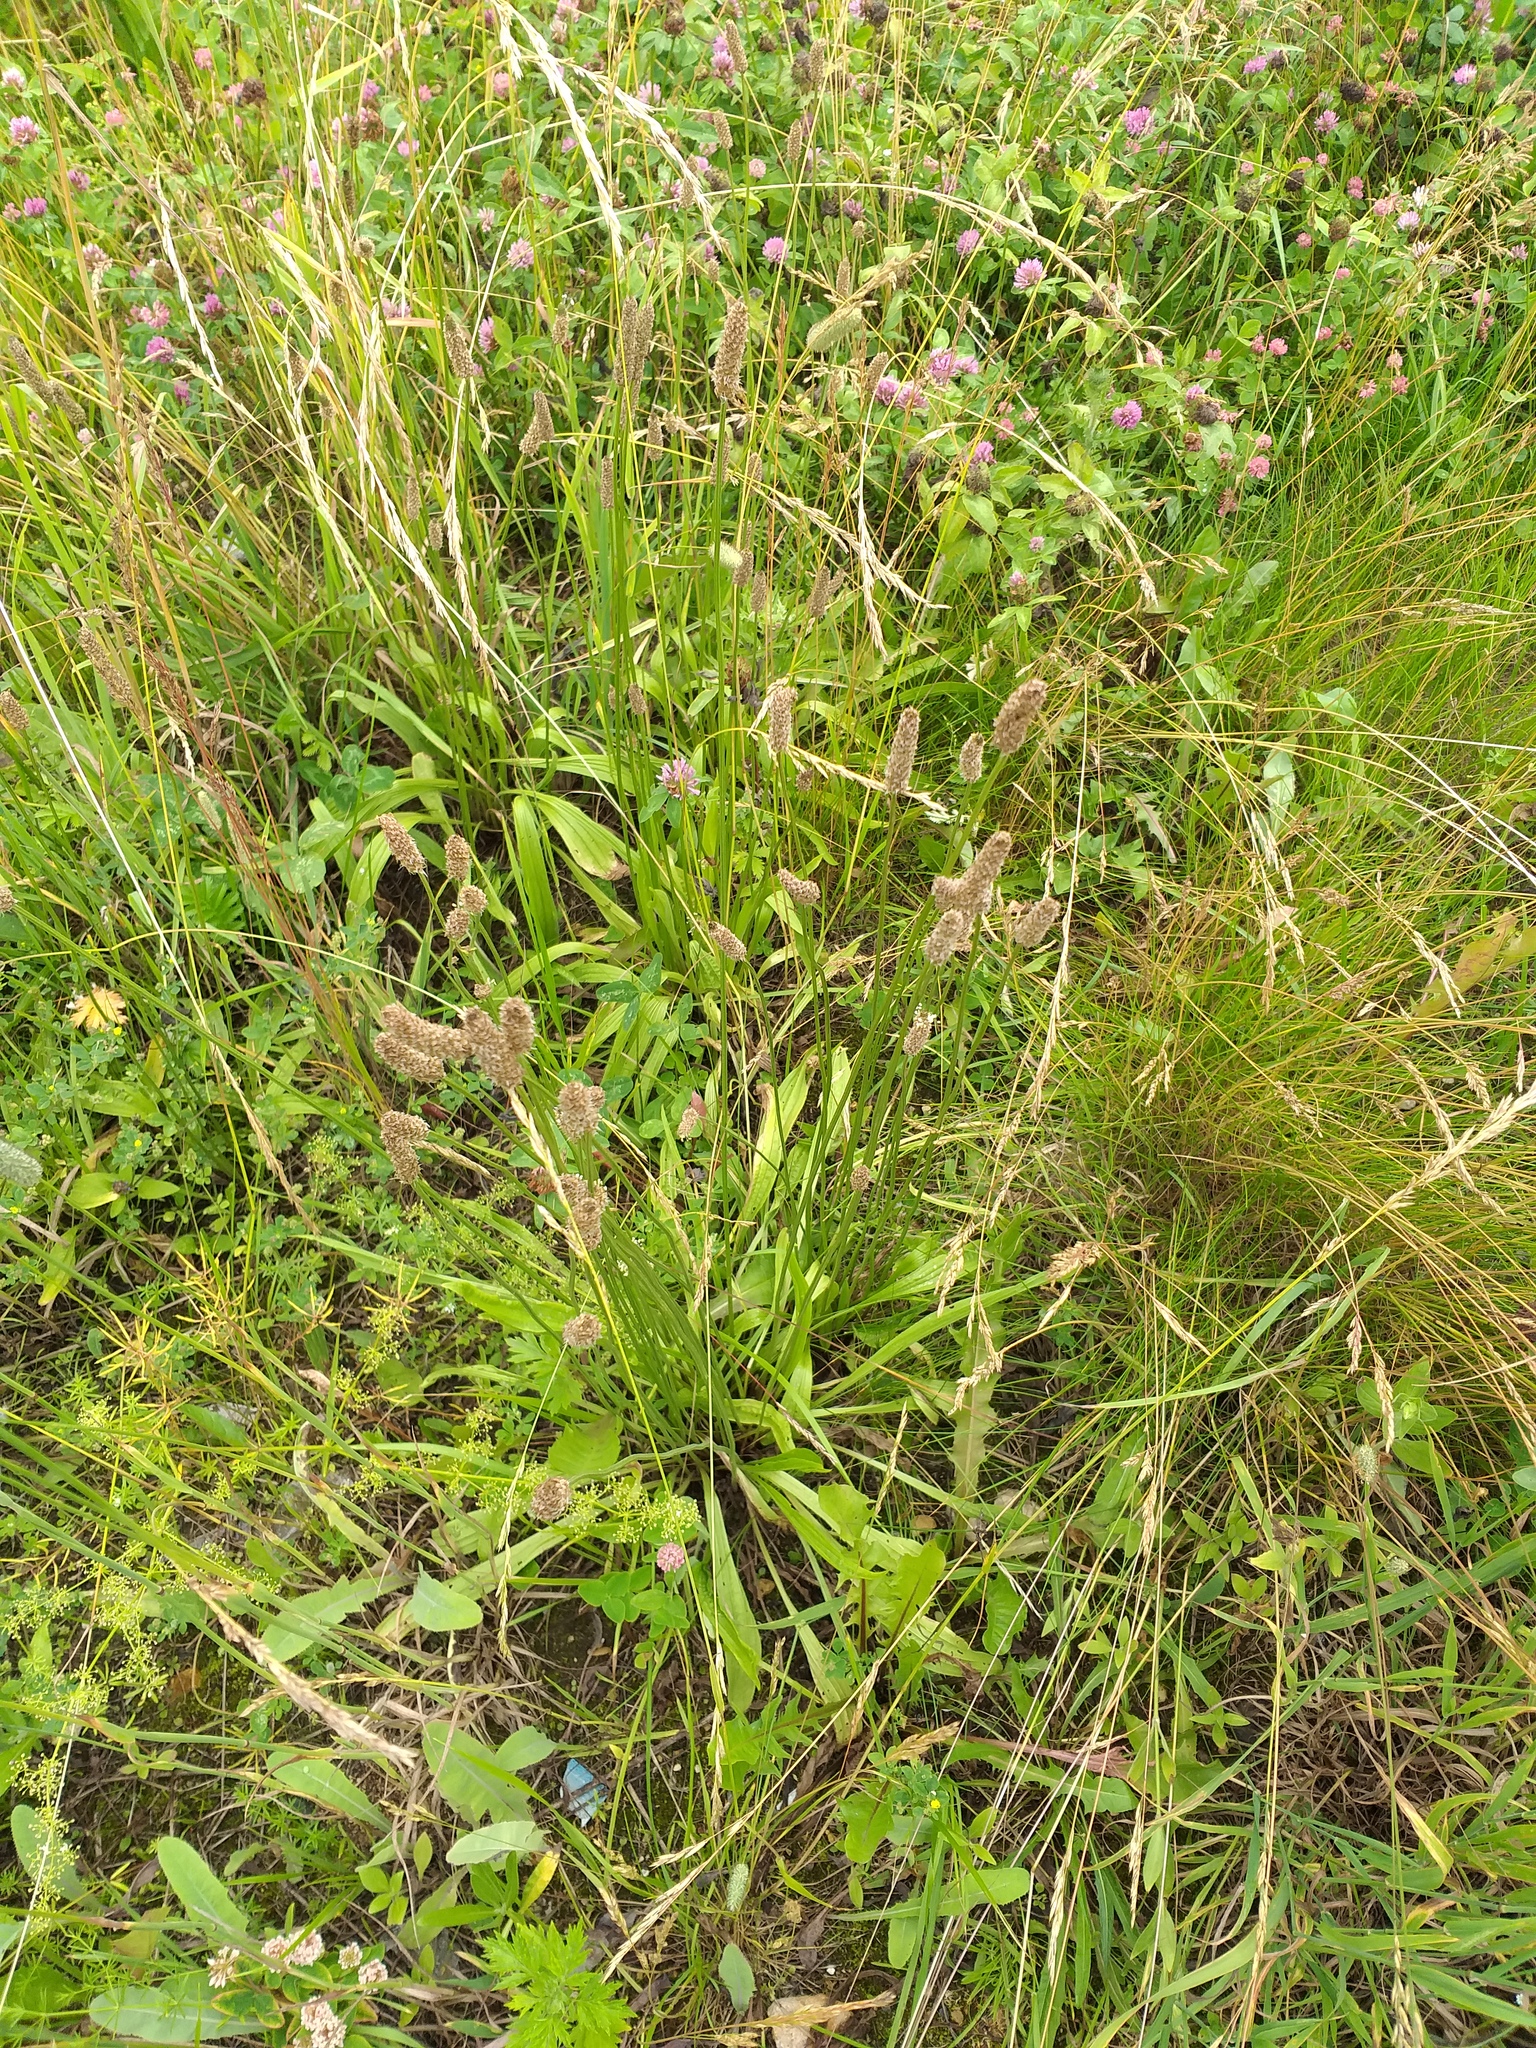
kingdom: Plantae
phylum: Tracheophyta
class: Magnoliopsida
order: Lamiales
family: Plantaginaceae
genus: Plantago
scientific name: Plantago lanceolata
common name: Ribwort plantain
